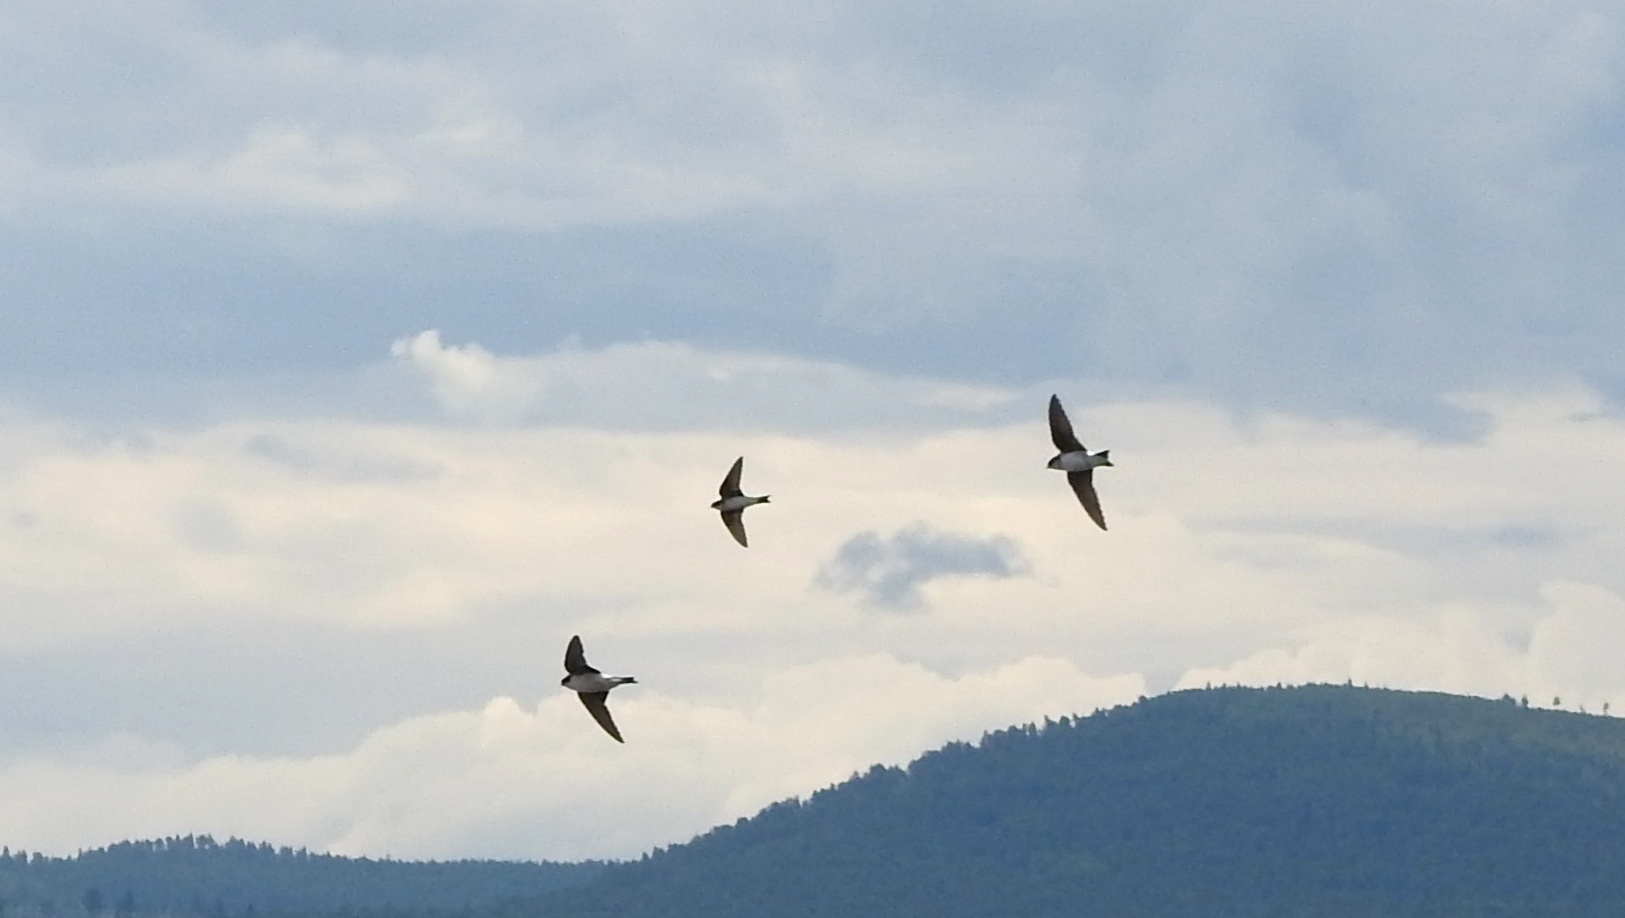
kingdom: Animalia
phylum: Chordata
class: Aves
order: Passeriformes
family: Hirundinidae
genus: Delichon
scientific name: Delichon urbicum
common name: Common house martin
